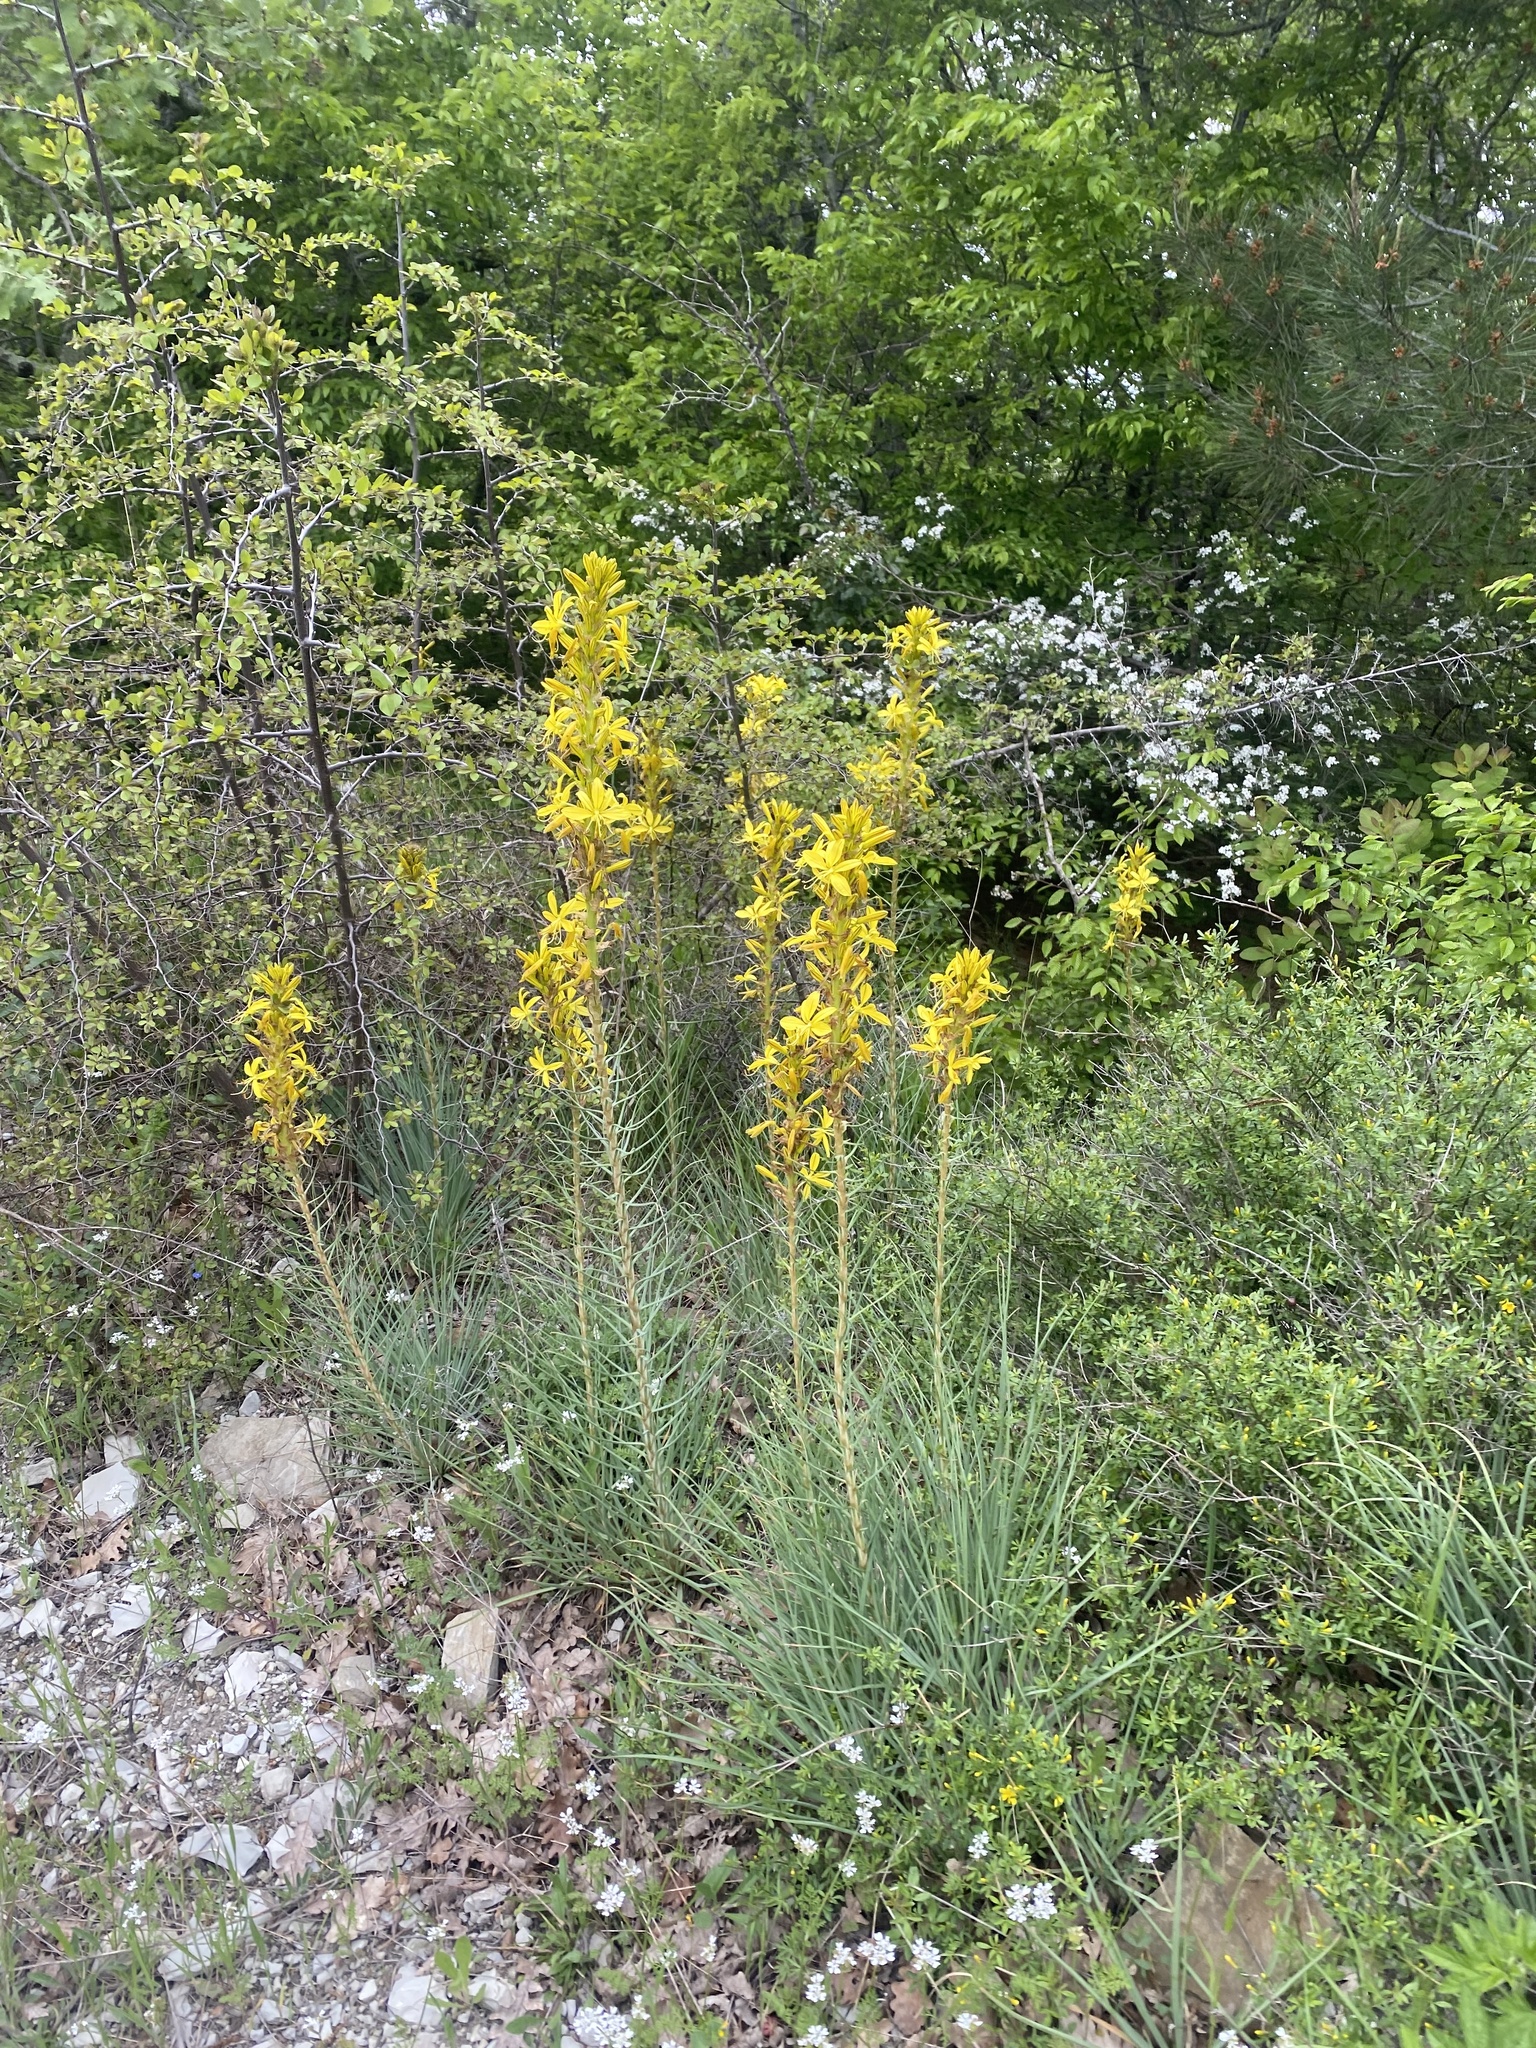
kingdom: Plantae
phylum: Tracheophyta
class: Liliopsida
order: Asparagales
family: Asphodelaceae
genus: Asphodeline
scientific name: Asphodeline lutea
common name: Yellow asphodel
